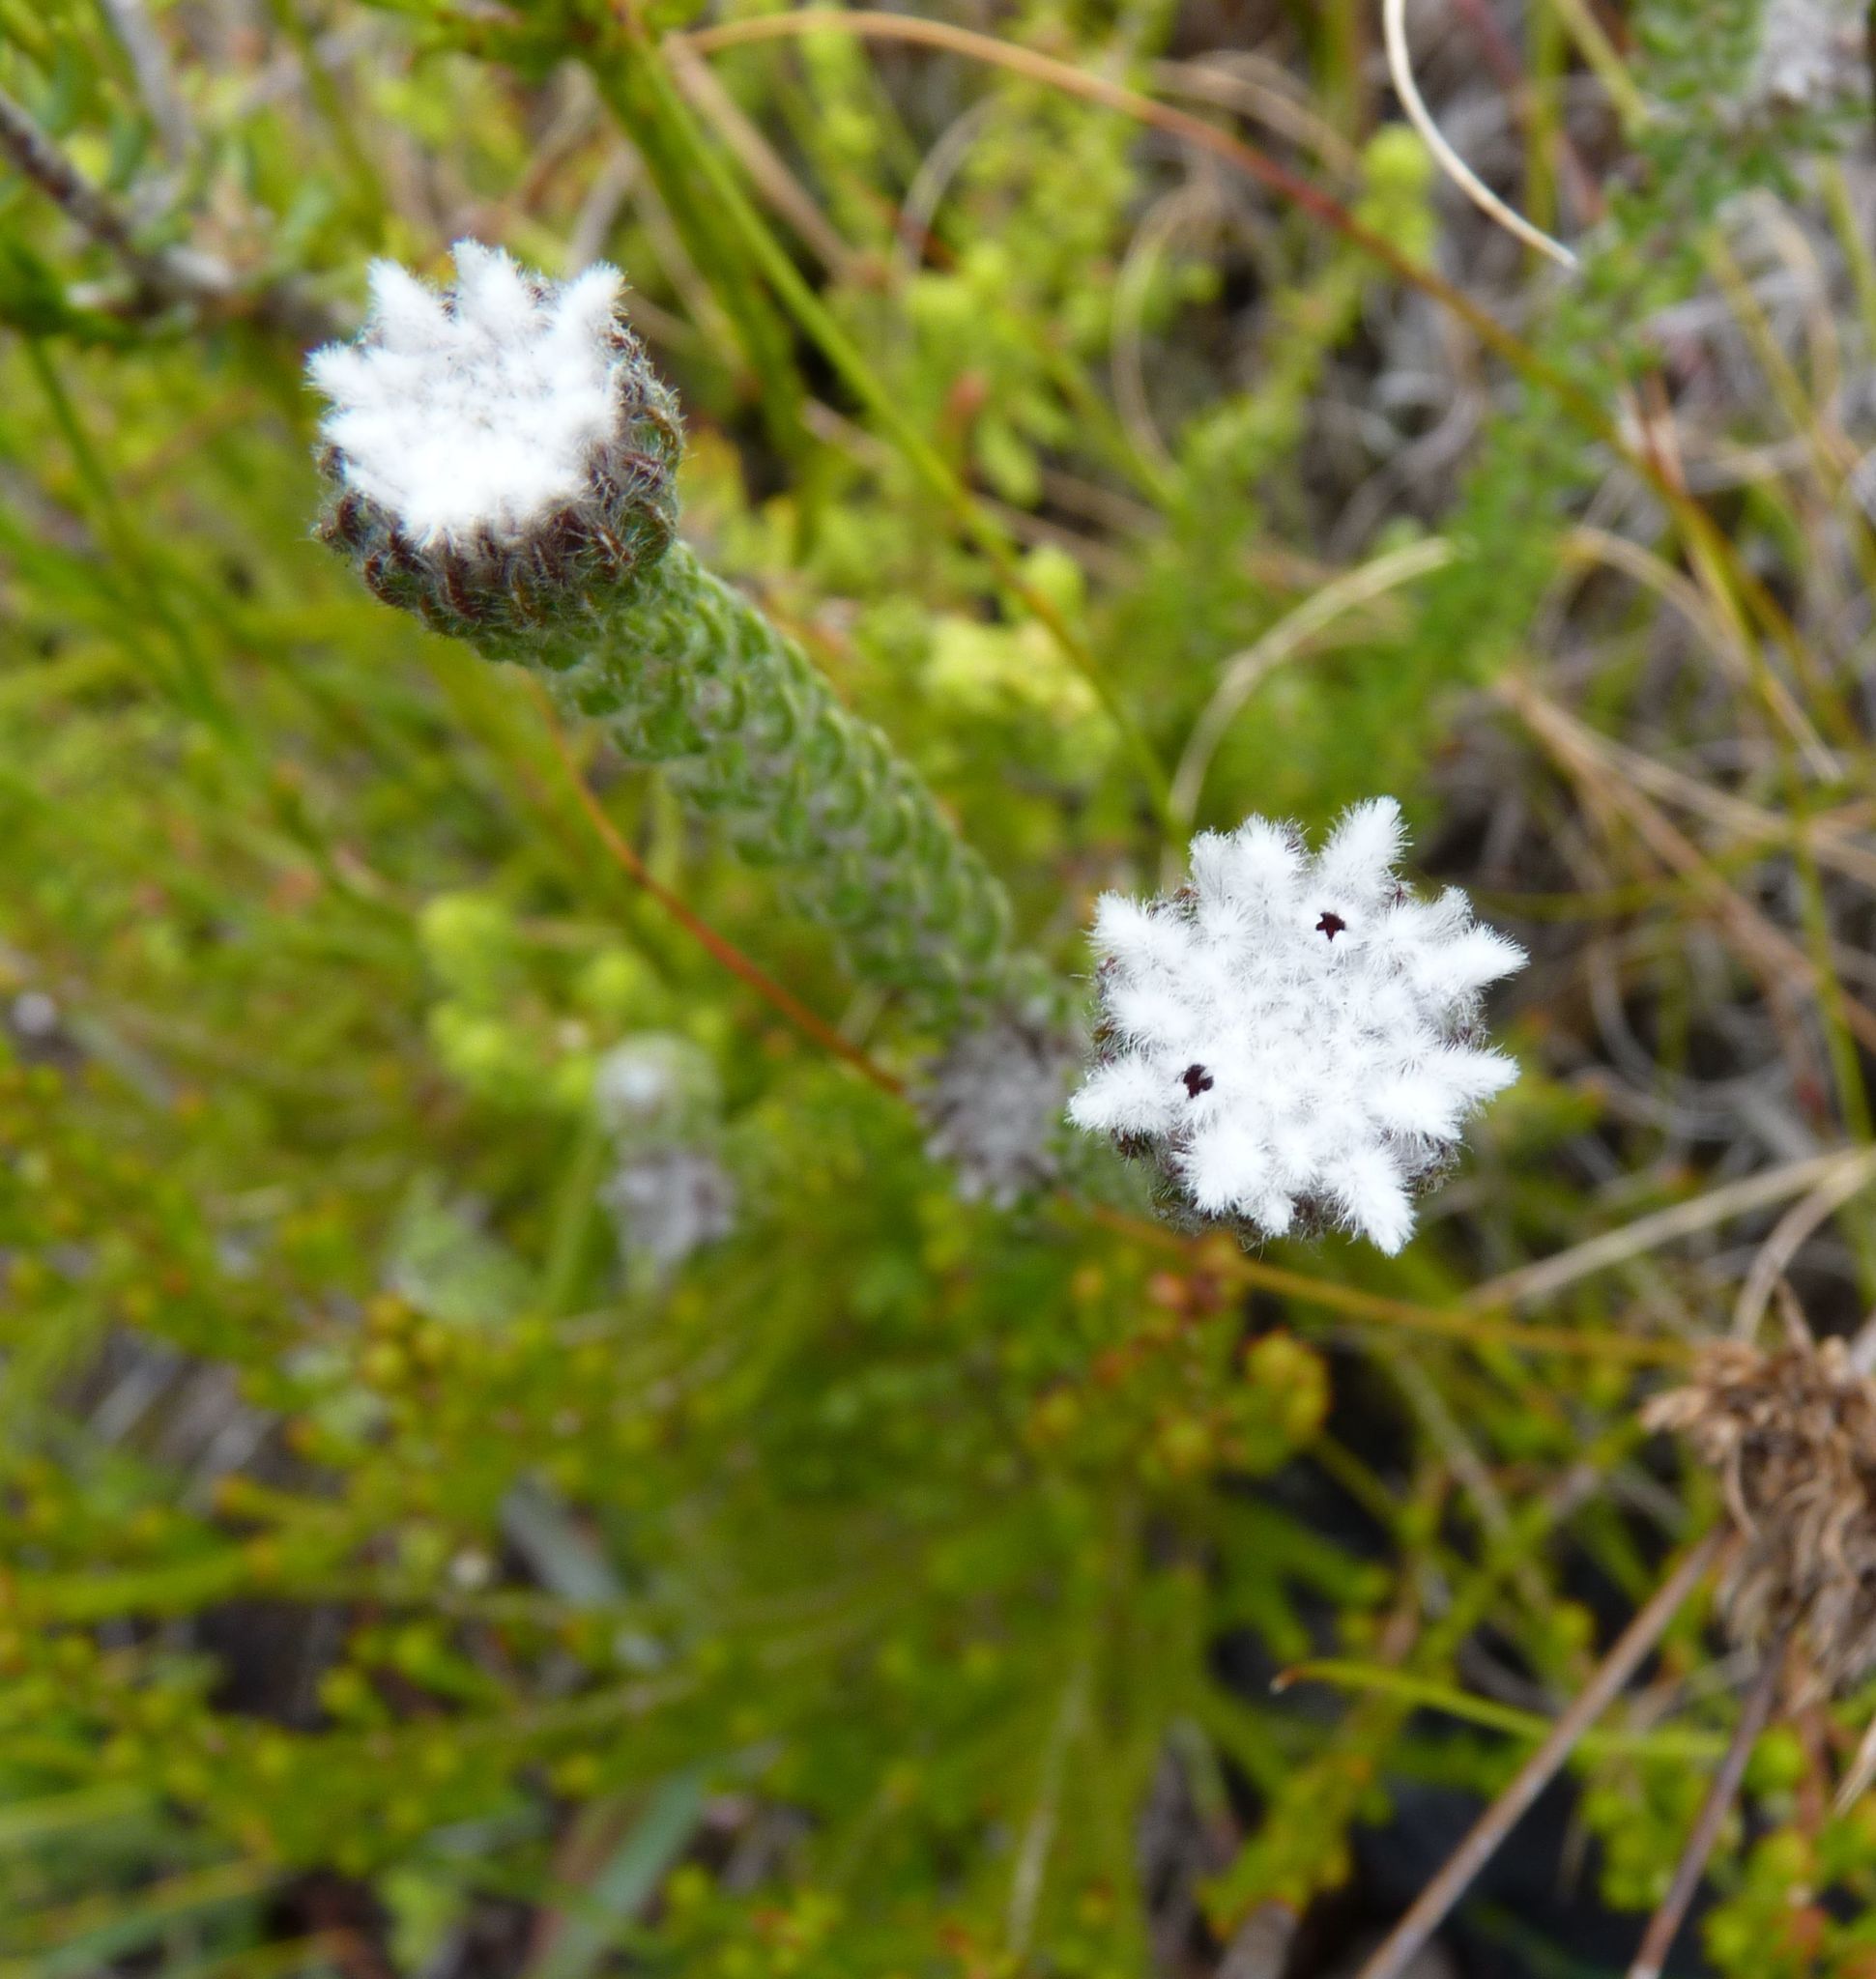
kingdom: Plantae
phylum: Tracheophyta
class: Magnoliopsida
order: Rosales
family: Rhamnaceae
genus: Phylica
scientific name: Phylica curvifolia
